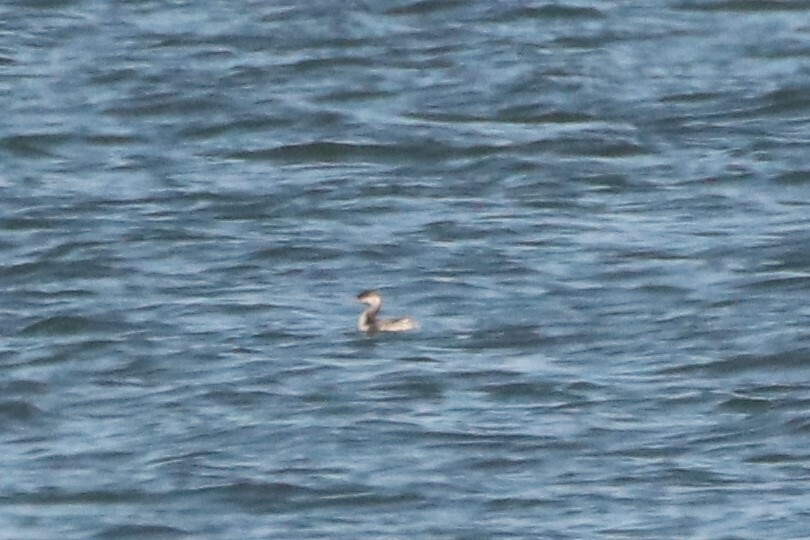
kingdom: Animalia
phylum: Chordata
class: Aves
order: Podicipediformes
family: Podicipedidae
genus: Podiceps
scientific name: Podiceps auritus
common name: Horned grebe
